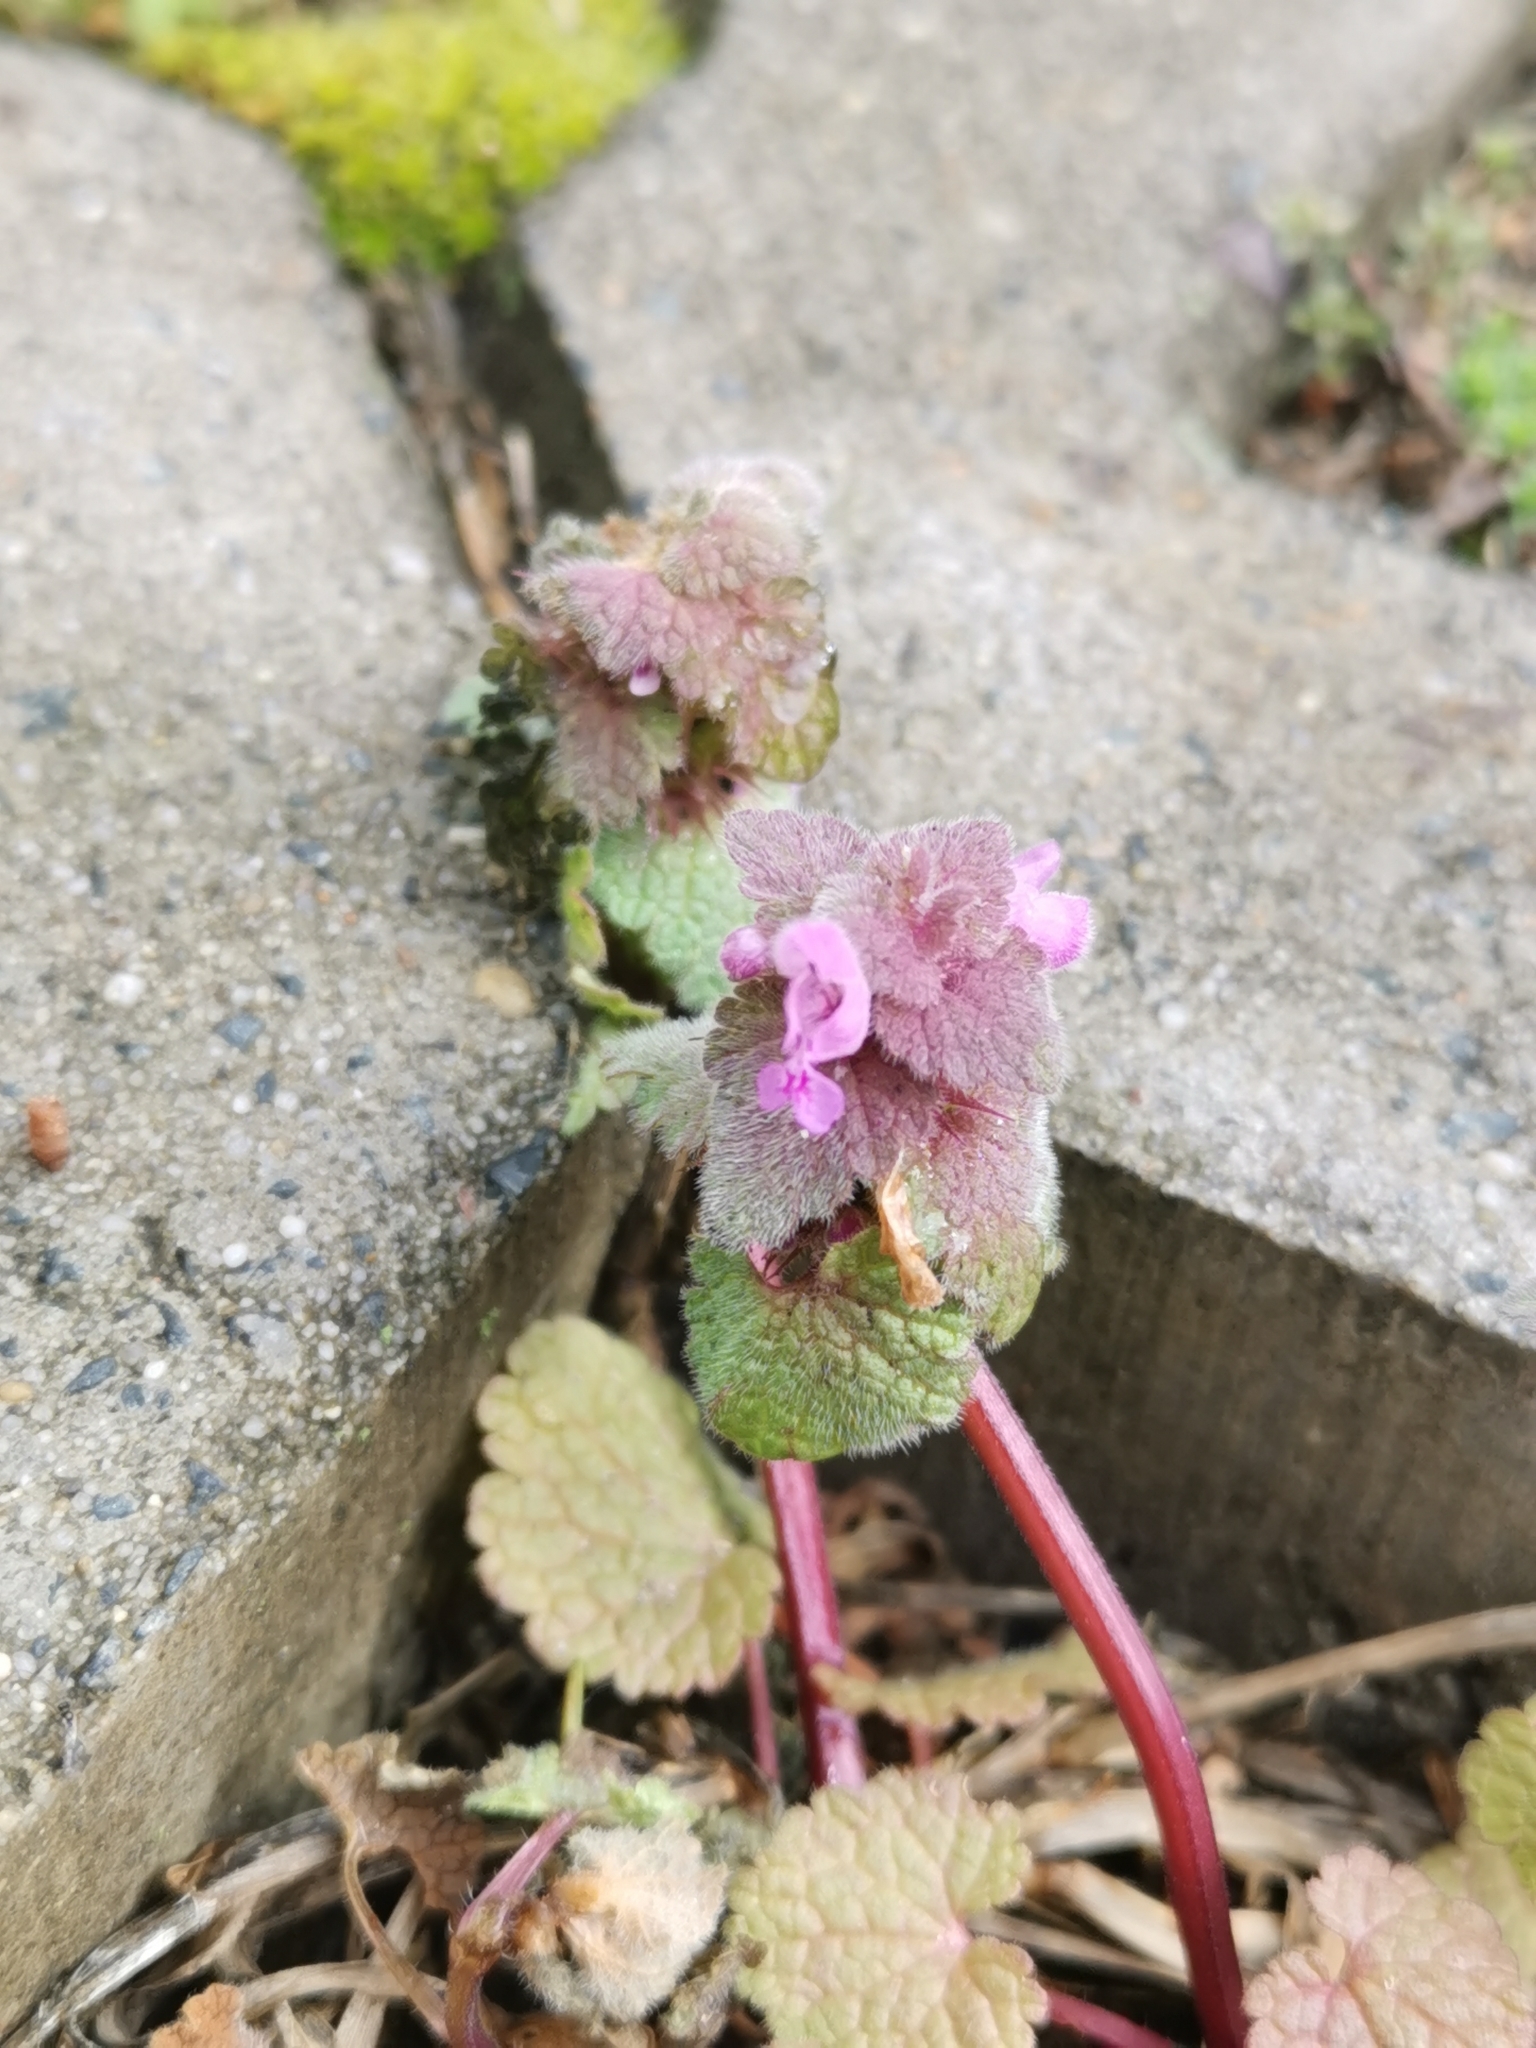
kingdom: Plantae
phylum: Tracheophyta
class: Magnoliopsida
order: Lamiales
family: Lamiaceae
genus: Lamium
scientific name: Lamium purpureum
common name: Red dead-nettle
